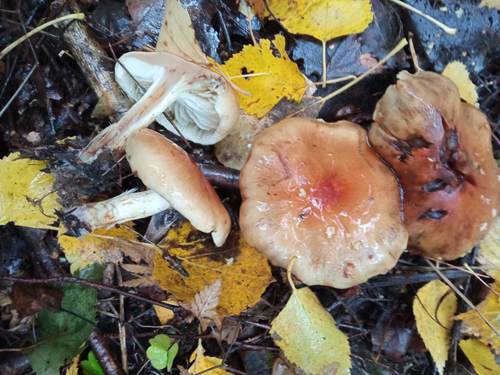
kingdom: Fungi
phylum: Basidiomycota
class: Agaricomycetes
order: Agaricales
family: Strophariaceae
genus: Pholiota
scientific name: Pholiota spumosa
